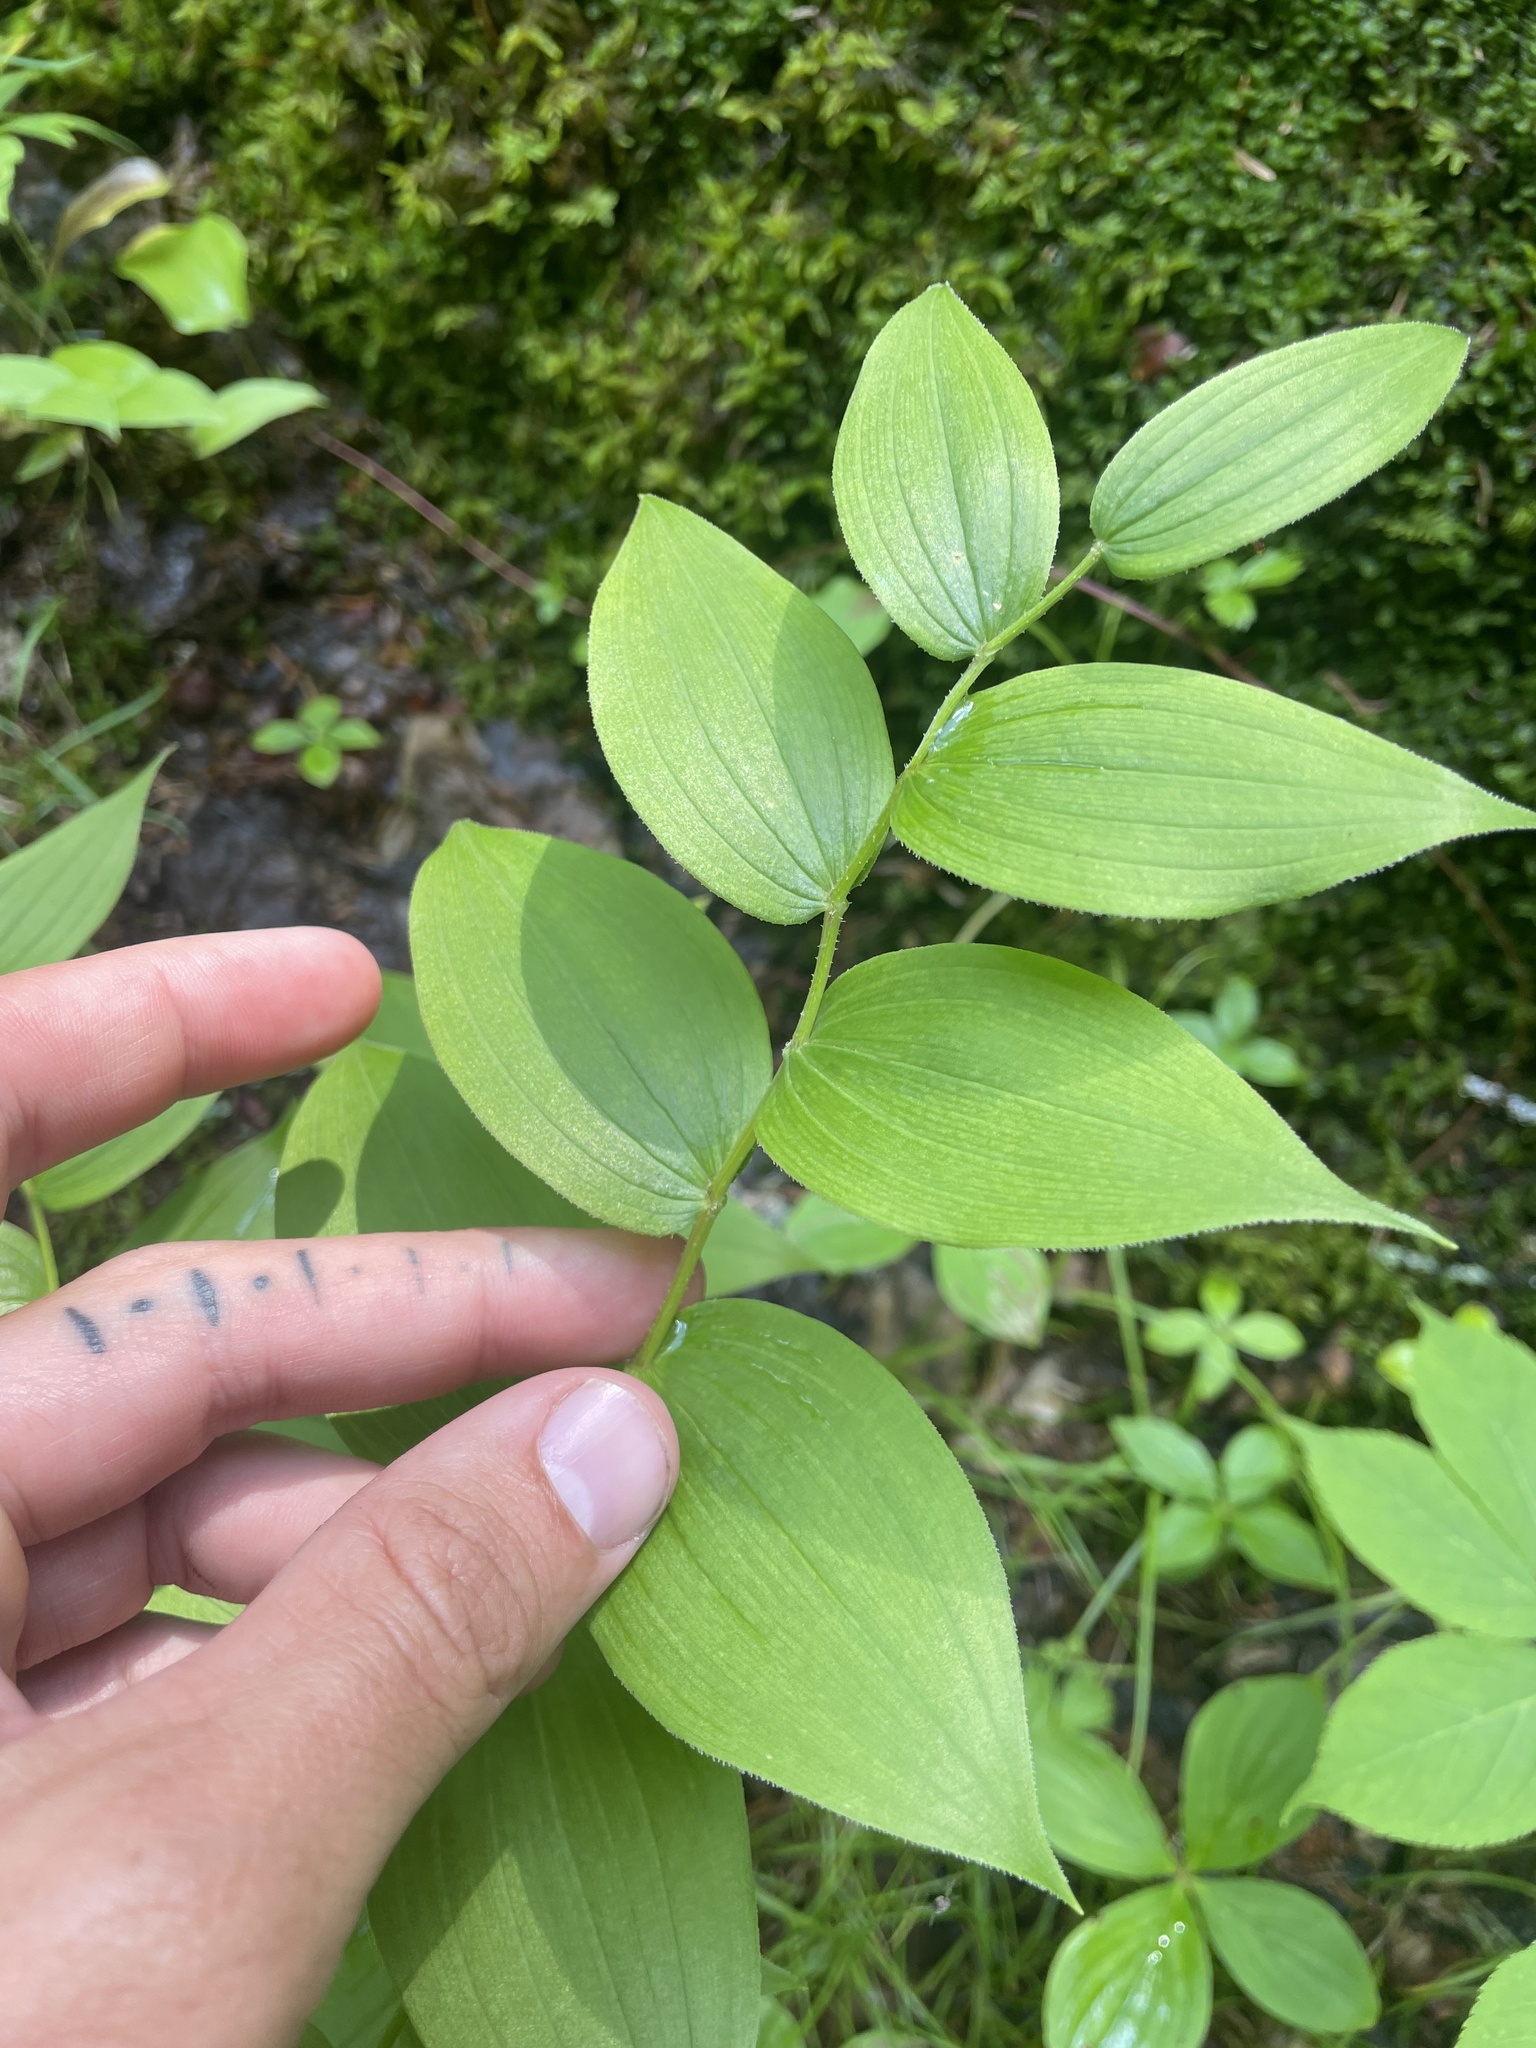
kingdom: Plantae
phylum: Tracheophyta
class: Liliopsida
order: Liliales
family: Liliaceae
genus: Streptopus
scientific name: Streptopus lanceolatus
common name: Rose mandarin
